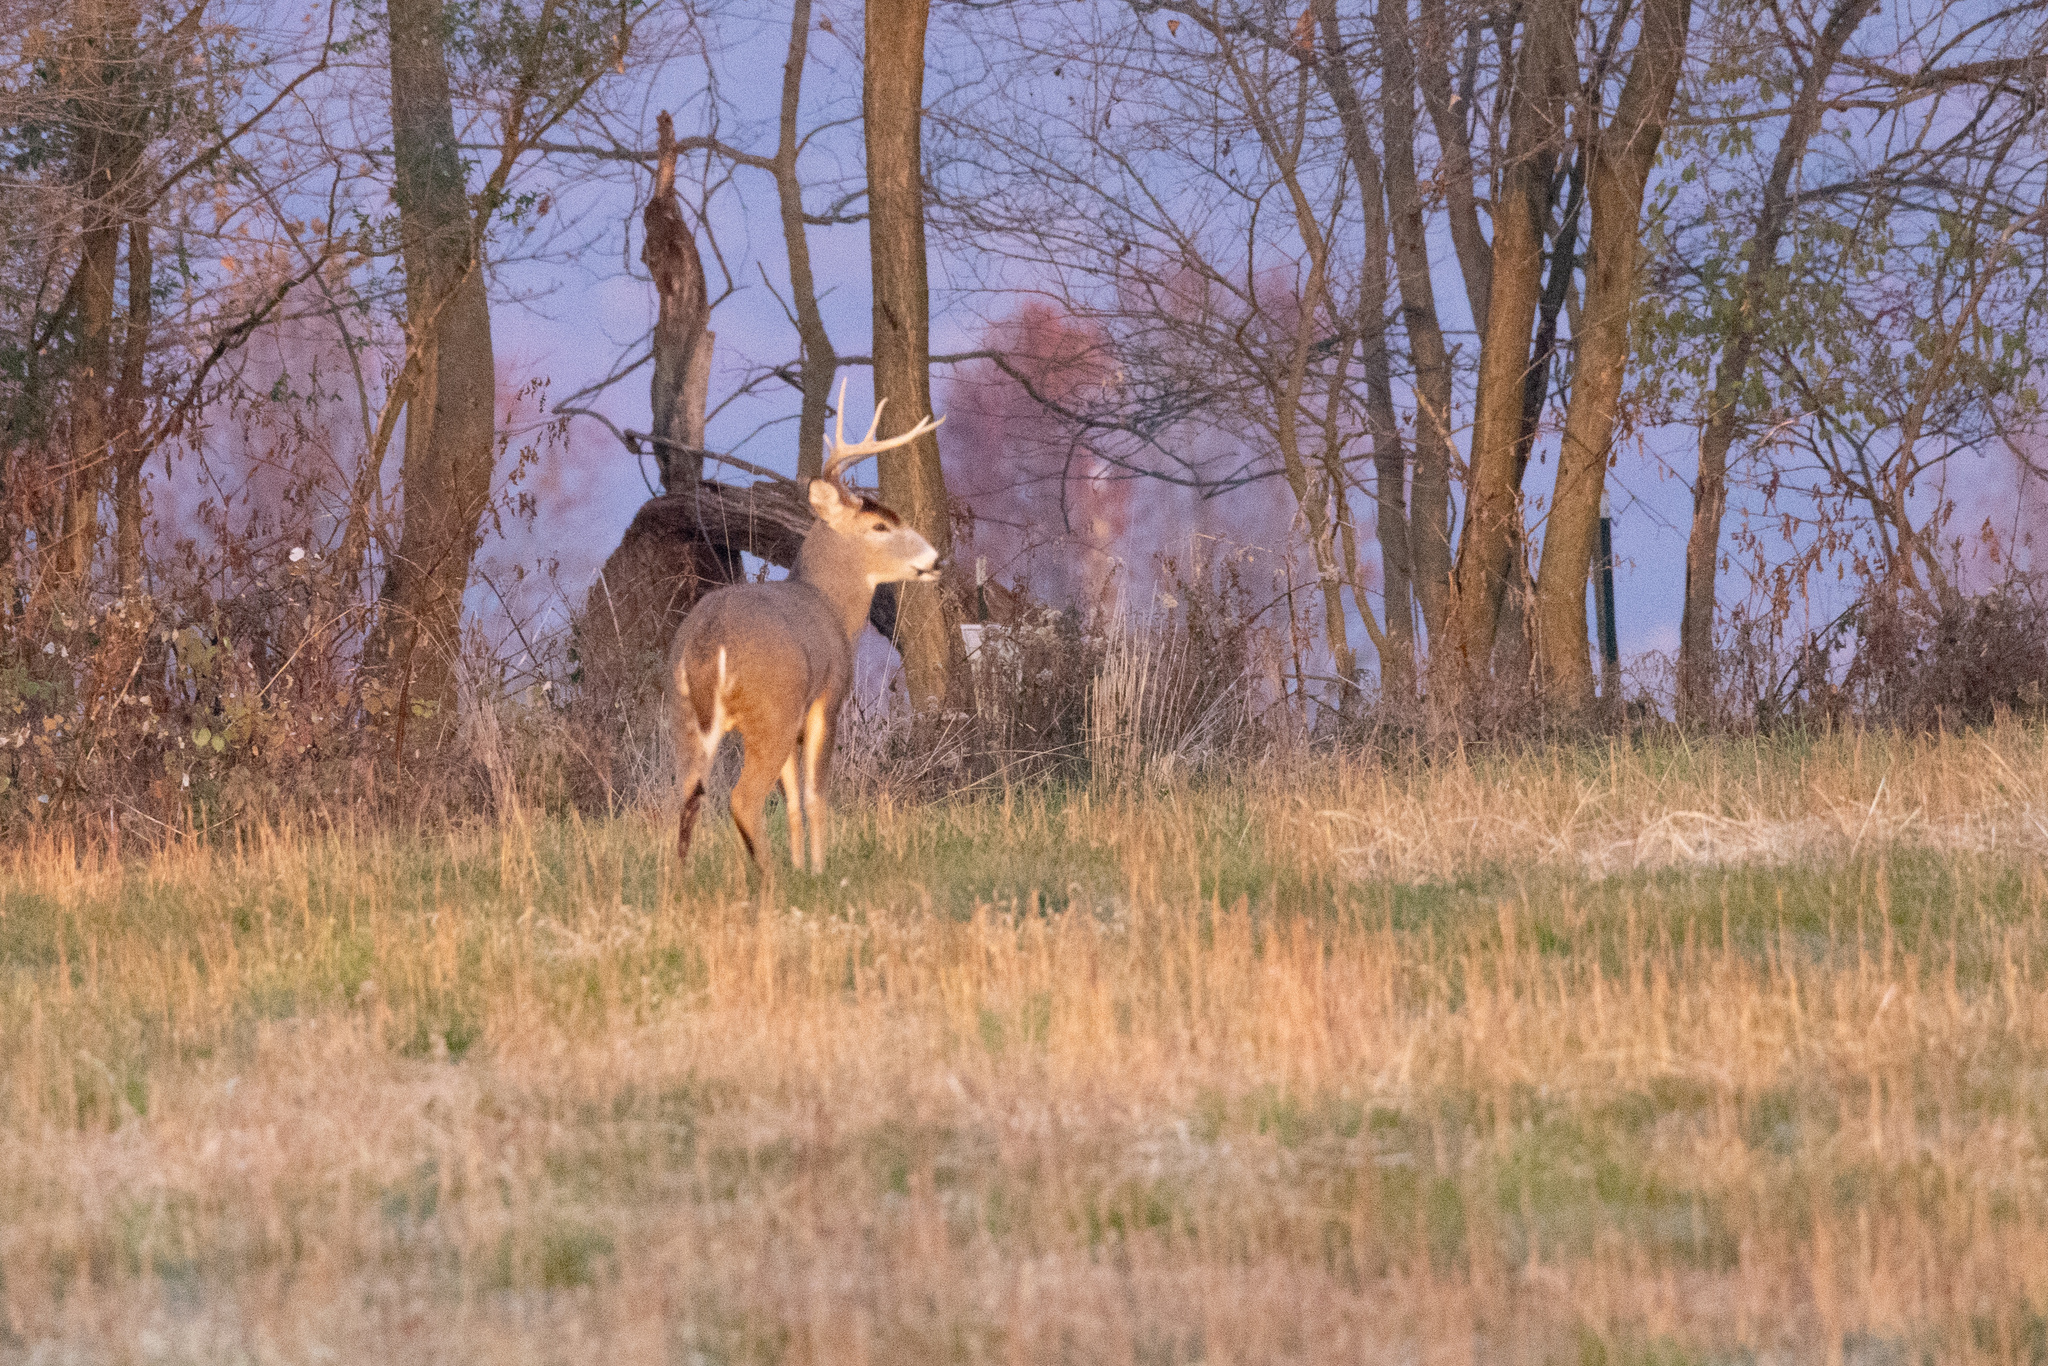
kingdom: Animalia
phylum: Chordata
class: Mammalia
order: Artiodactyla
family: Cervidae
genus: Odocoileus
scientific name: Odocoileus virginianus
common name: White-tailed deer
